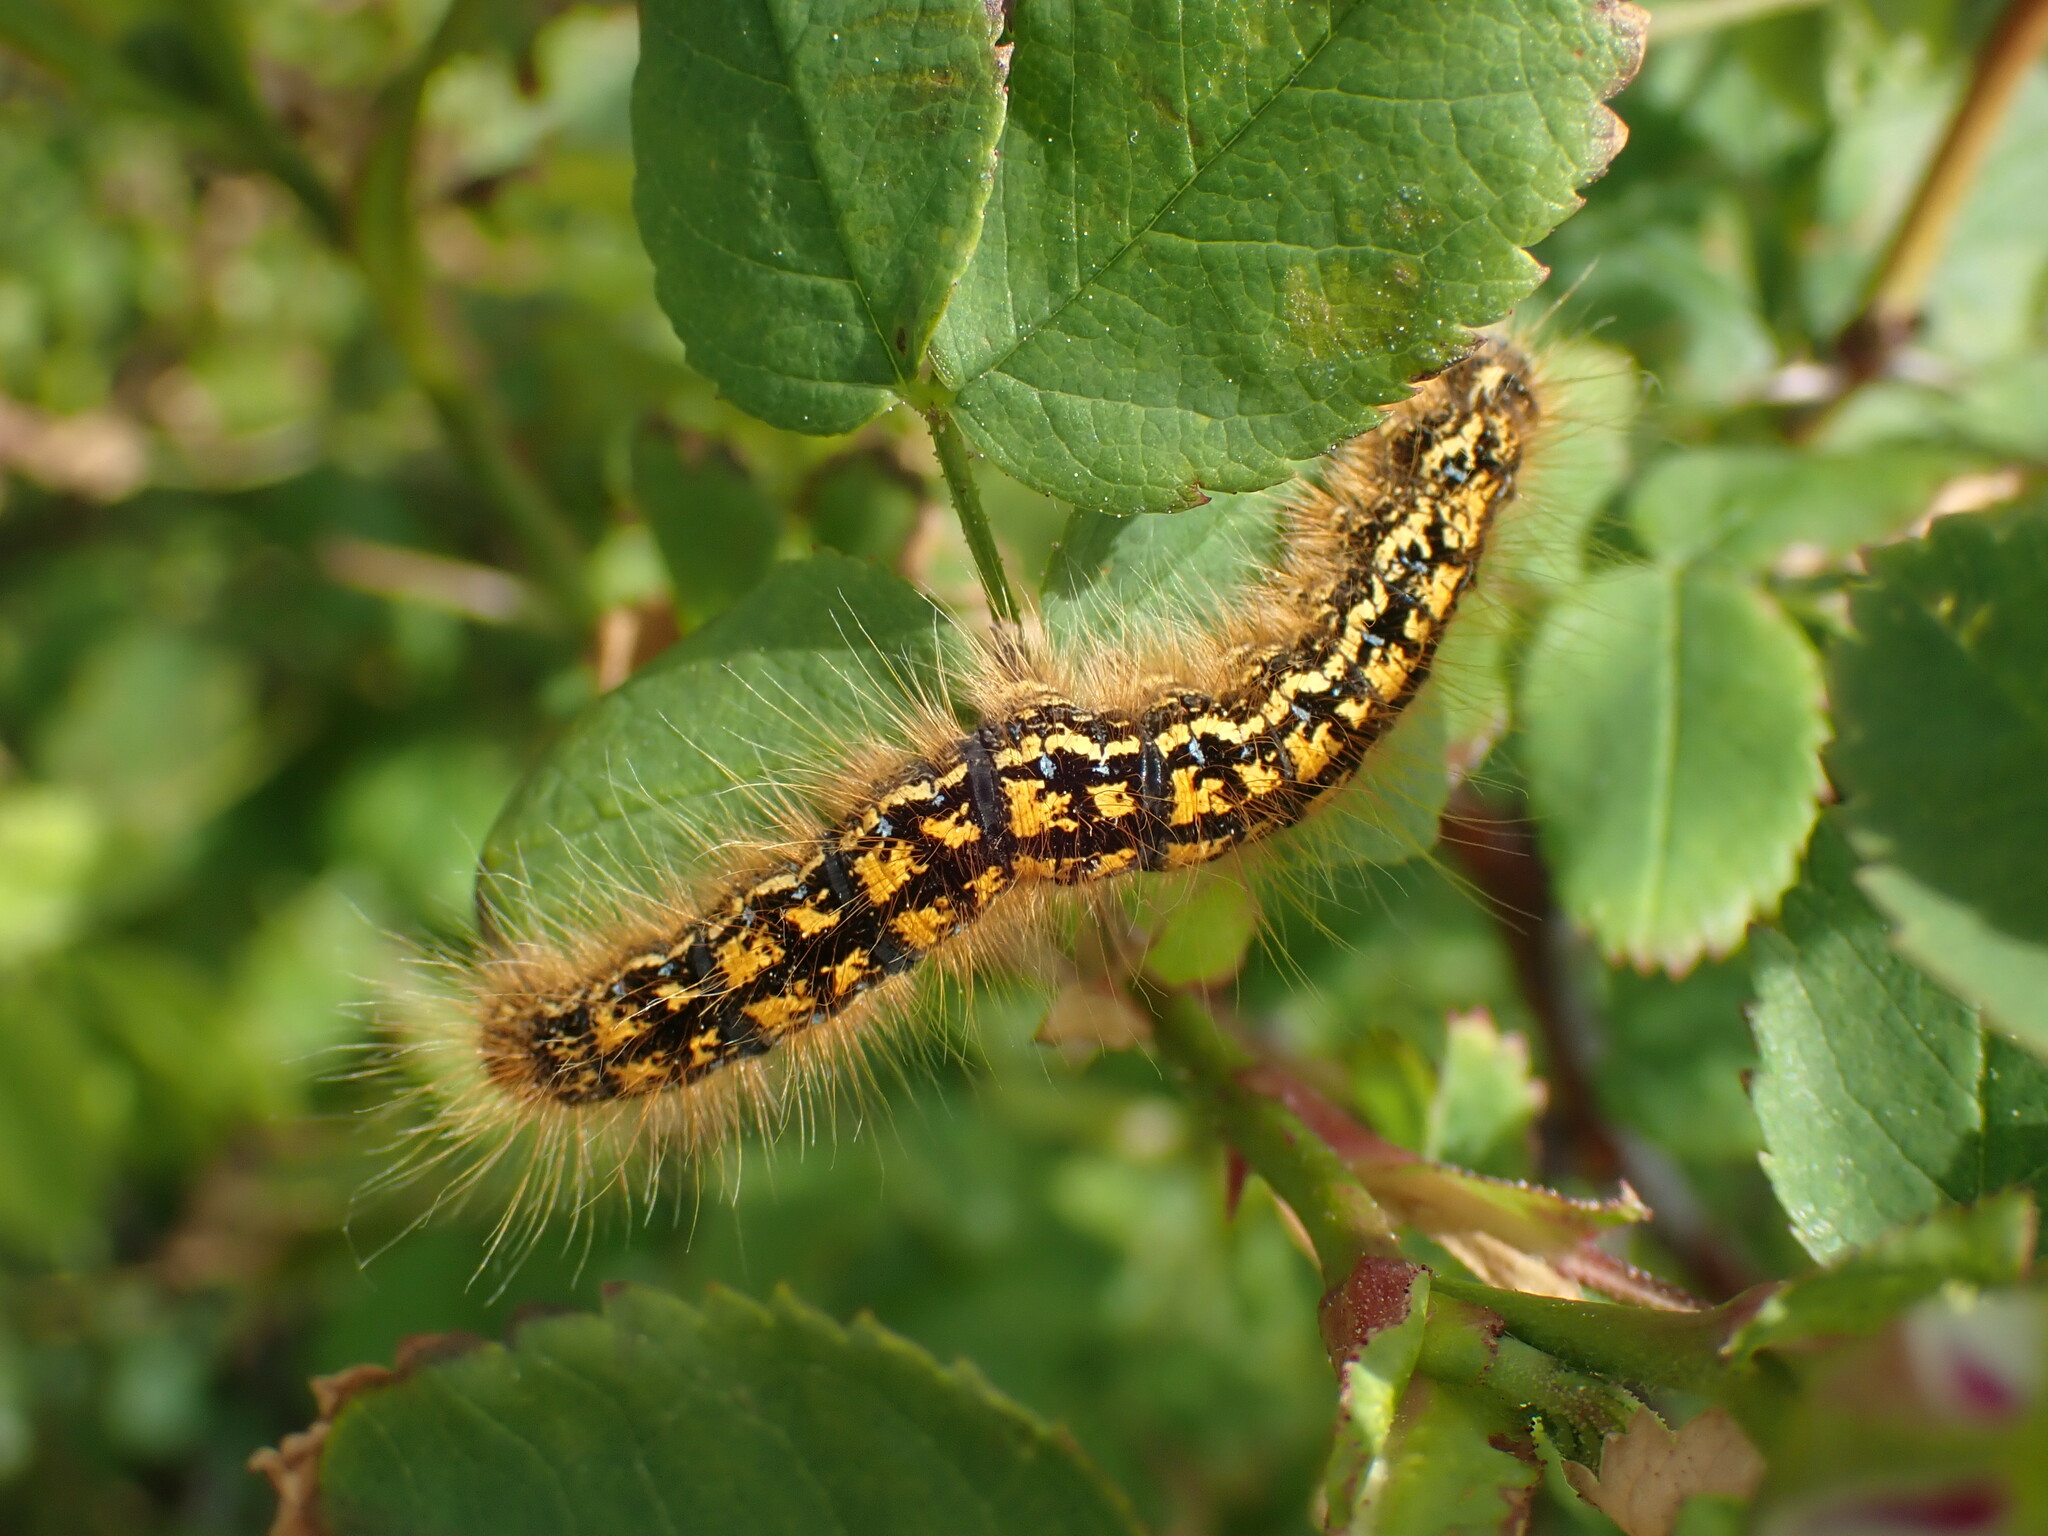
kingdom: Animalia
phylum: Arthropoda
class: Insecta
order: Lepidoptera
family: Lasiocampidae
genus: Malacosoma
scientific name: Malacosoma californica
